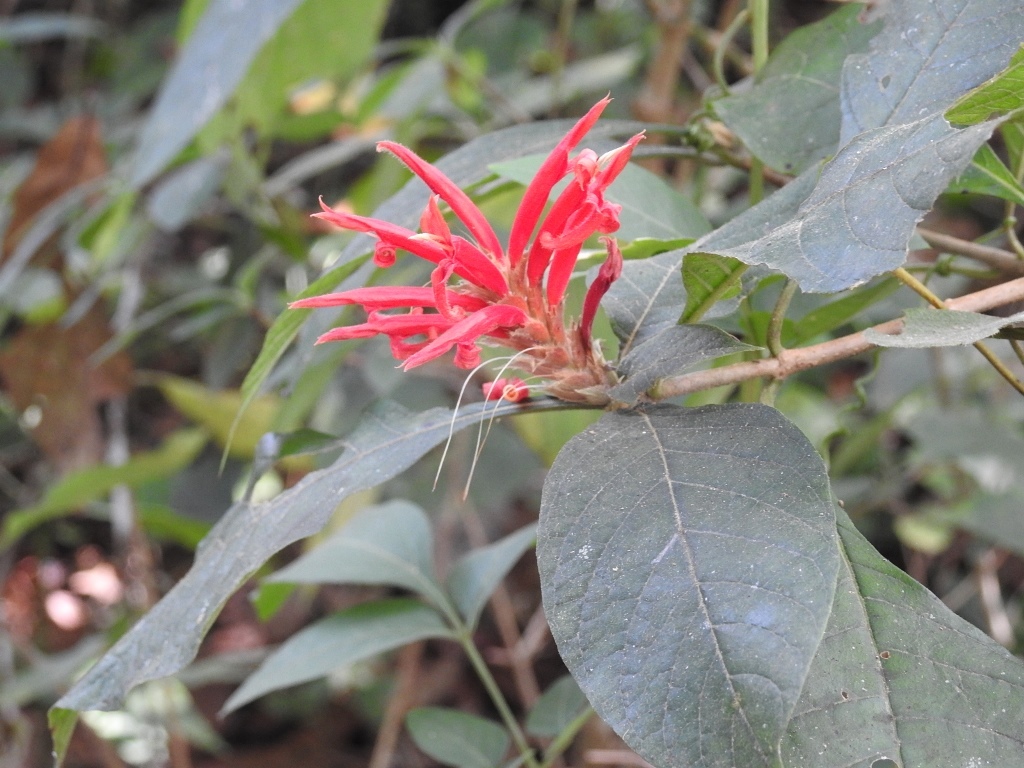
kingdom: Plantae
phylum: Tracheophyta
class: Magnoliopsida
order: Lamiales
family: Acanthaceae
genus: Aphelandra
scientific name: Aphelandra scabra
